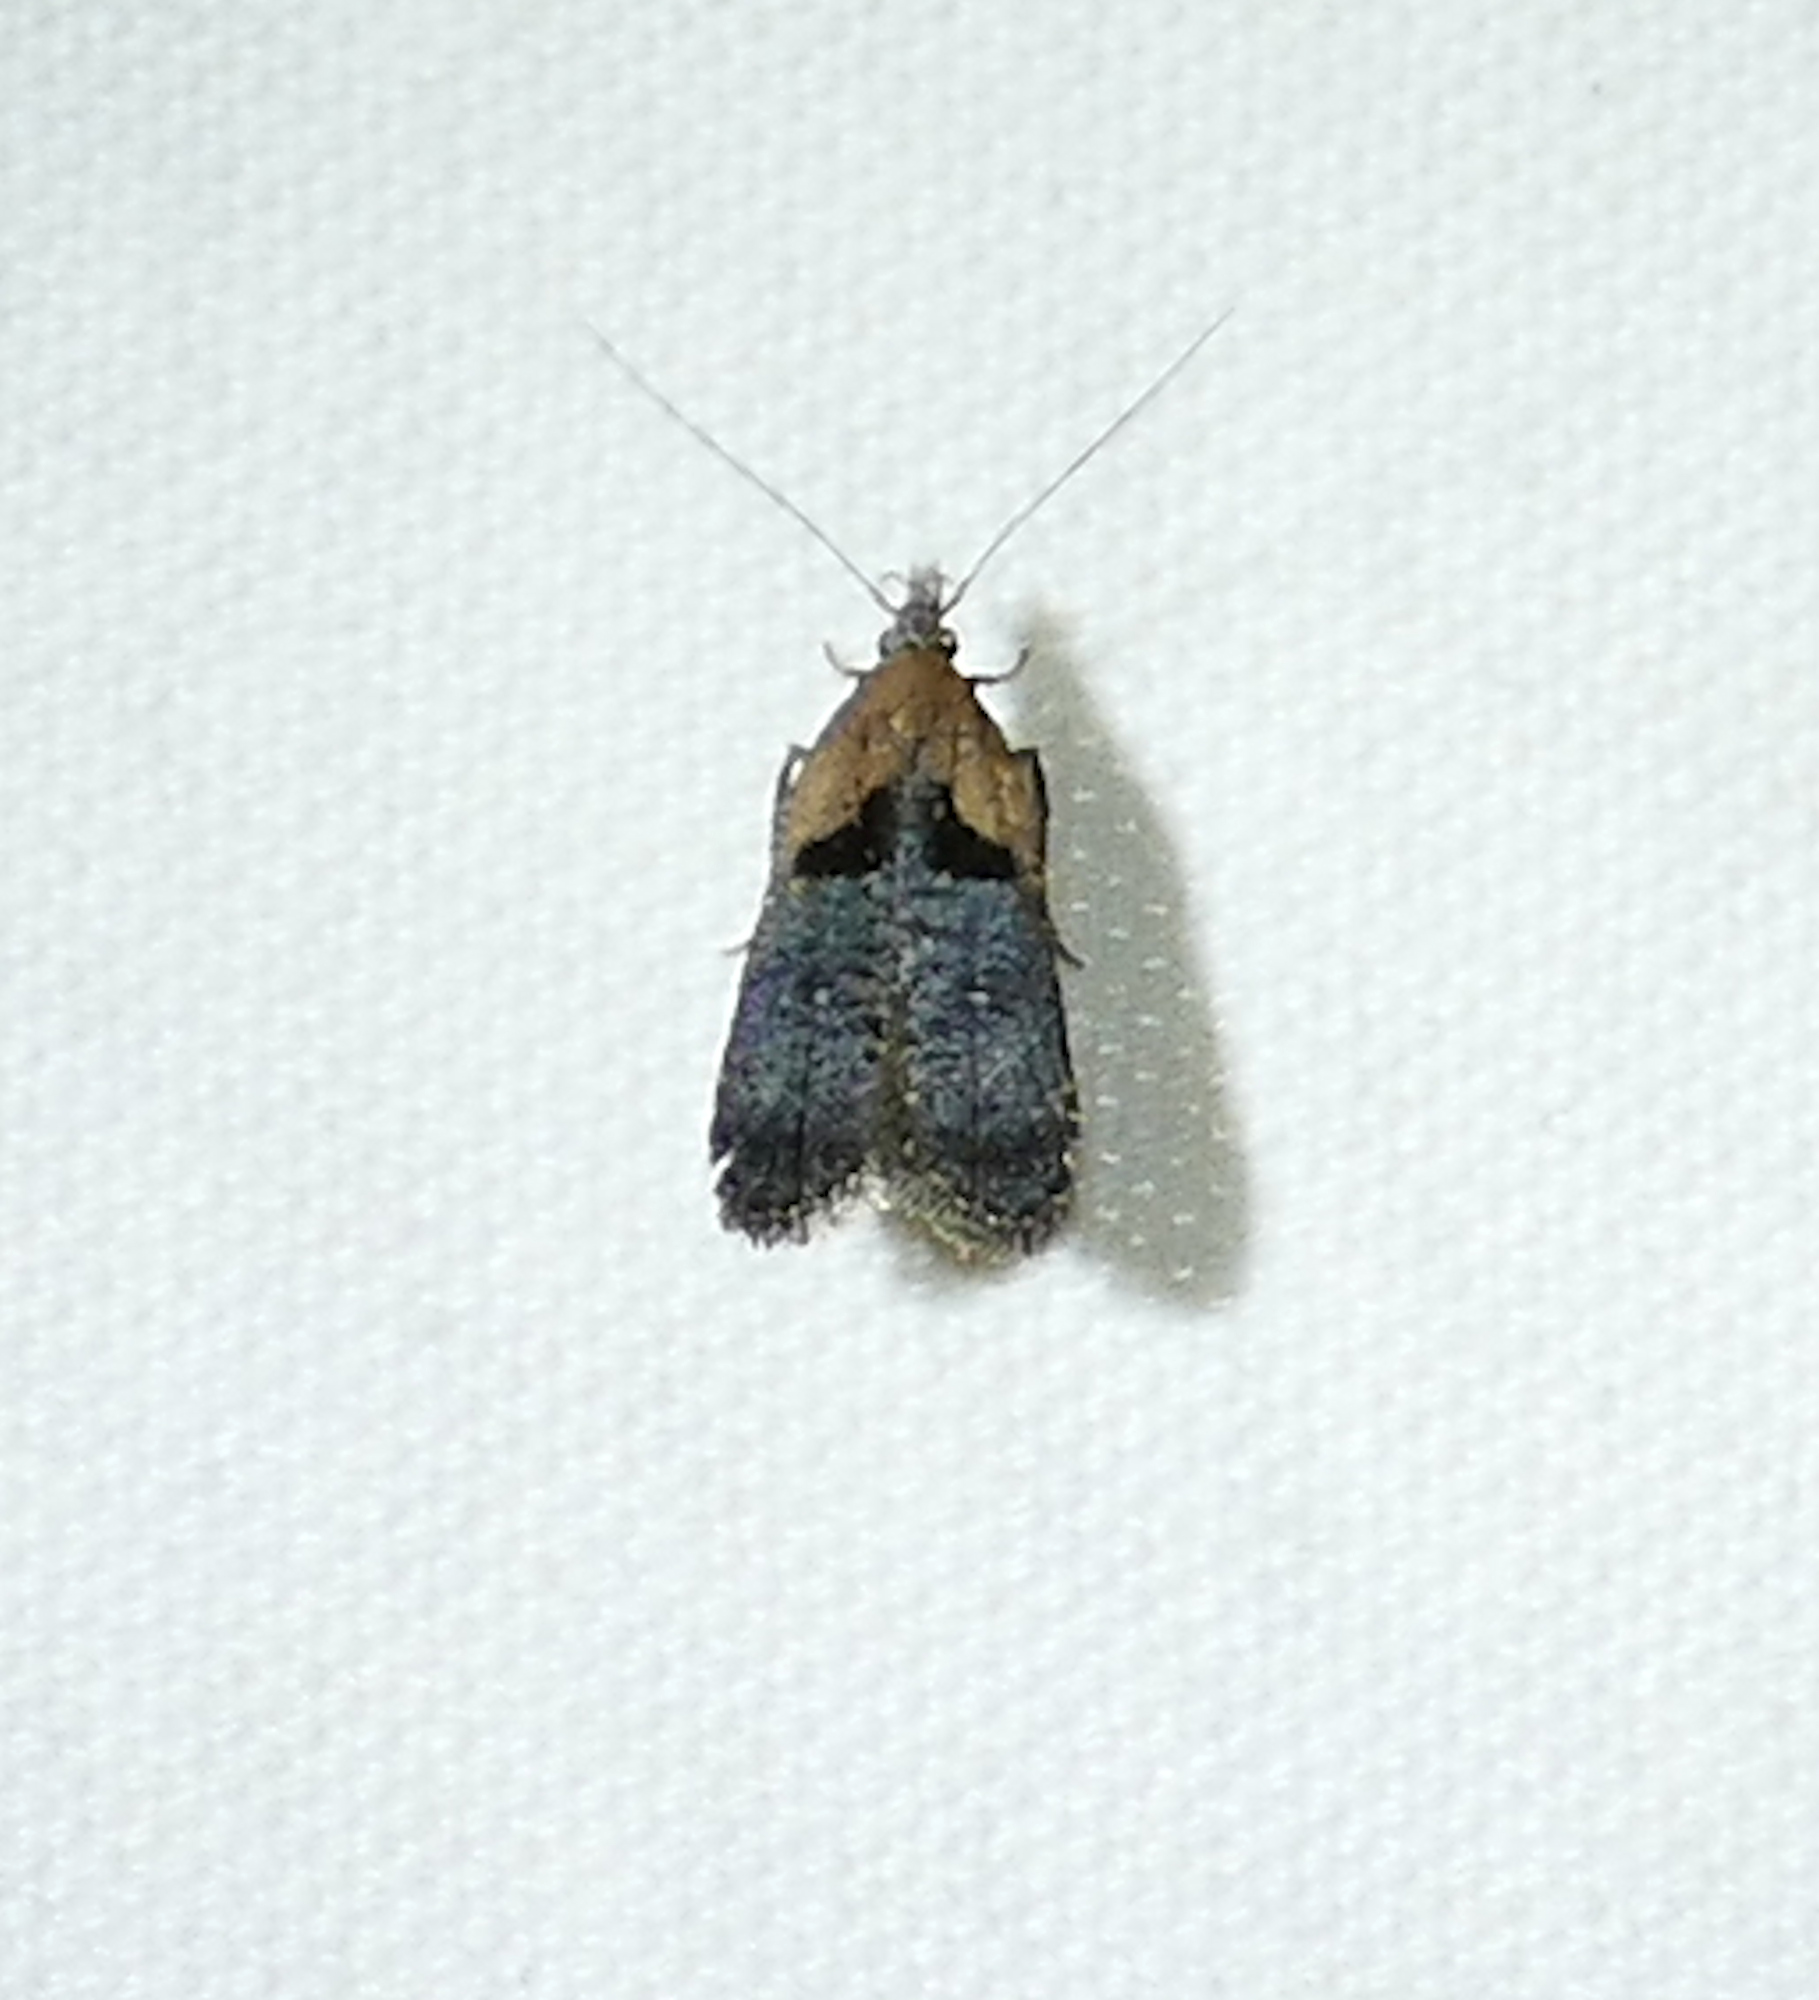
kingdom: Animalia
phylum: Arthropoda
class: Insecta
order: Lepidoptera
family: Gelechiidae
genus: Dichomeris
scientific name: Dichomeris gleba
